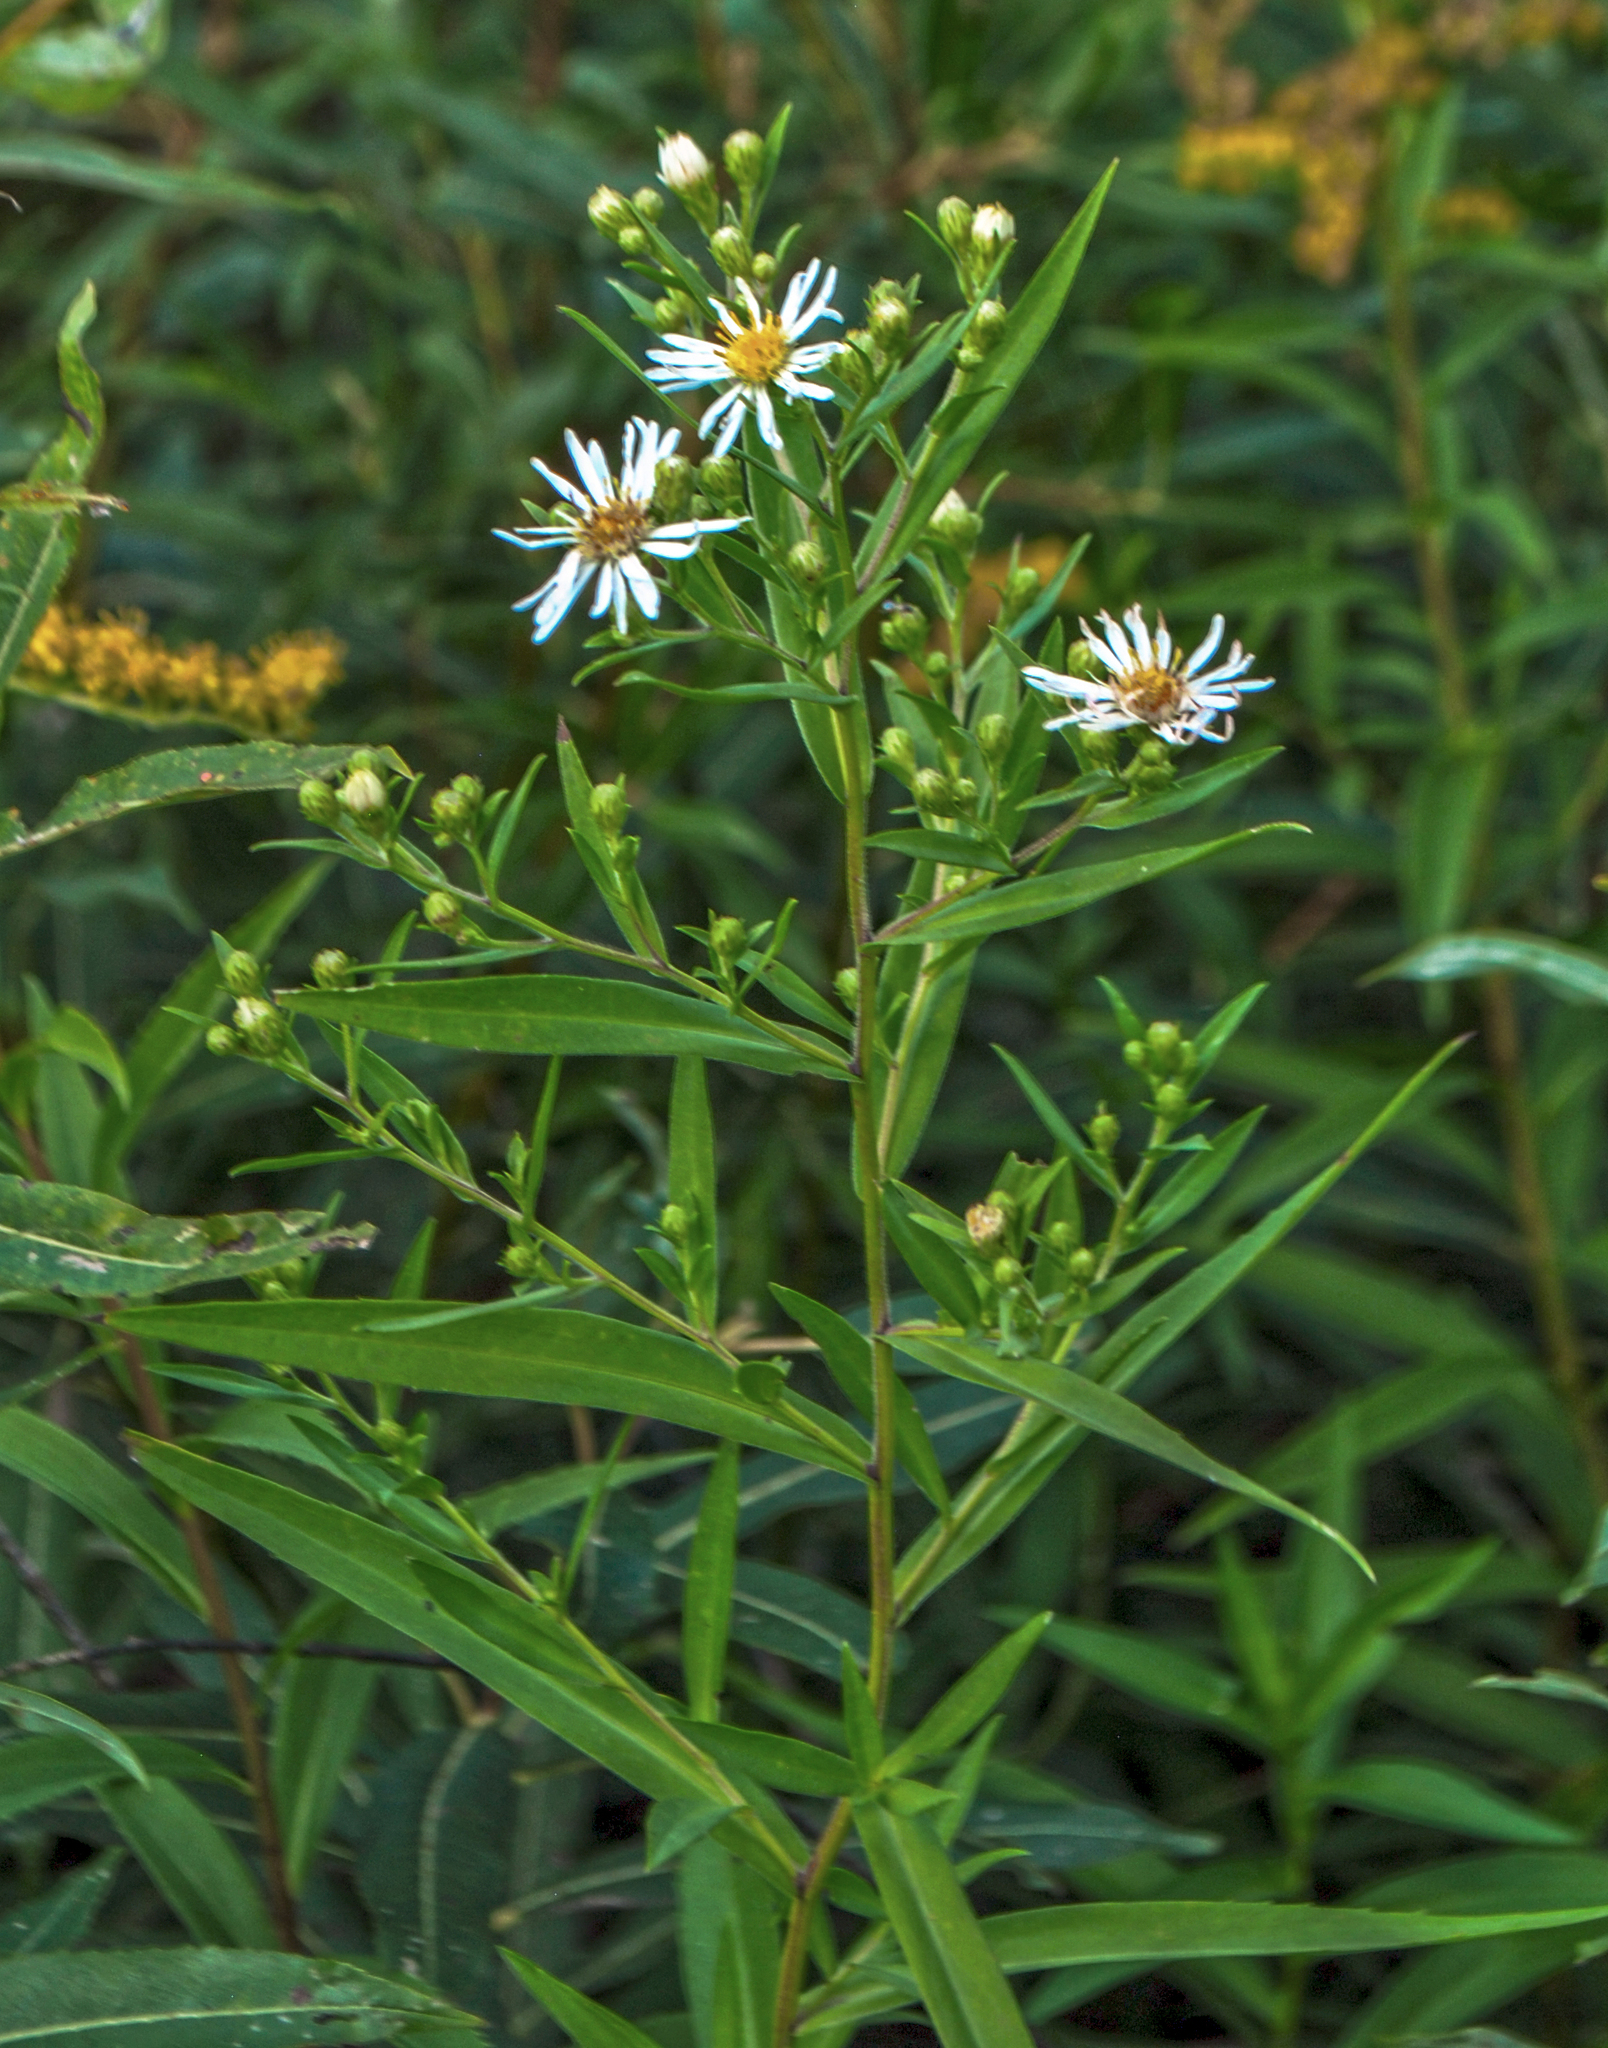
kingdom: Plantae
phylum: Tracheophyta
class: Magnoliopsida
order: Asterales
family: Asteraceae
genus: Symphyotrichum
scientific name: Symphyotrichum lanceolatum
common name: Panicled aster
